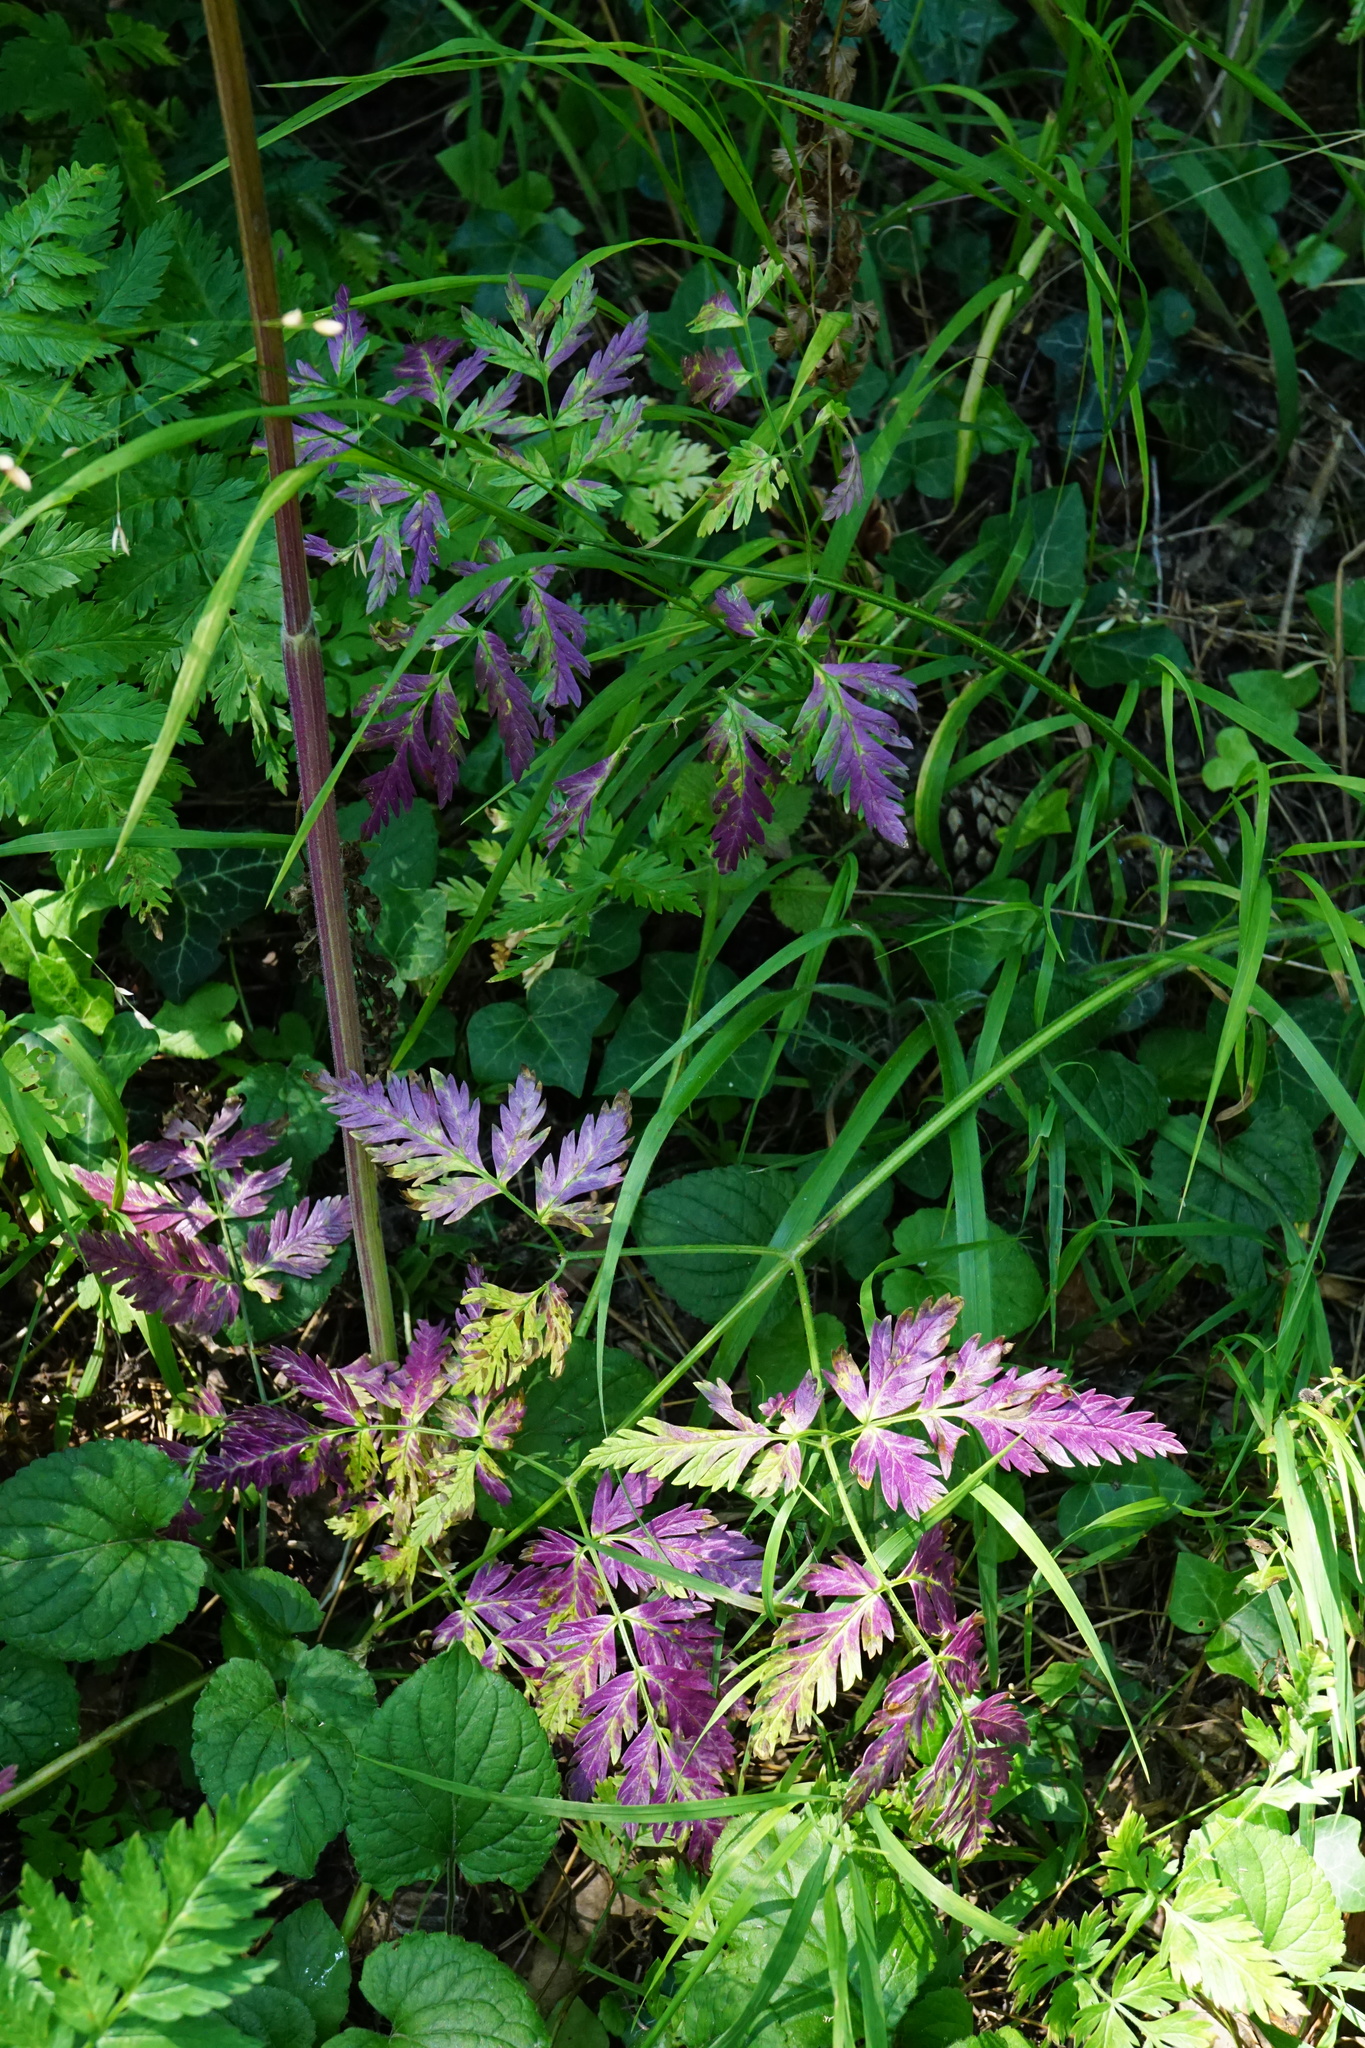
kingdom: Plantae
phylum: Tracheophyta
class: Magnoliopsida
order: Apiales
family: Apiaceae
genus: Anthriscus
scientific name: Anthriscus sylvestris
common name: Cow parsley
